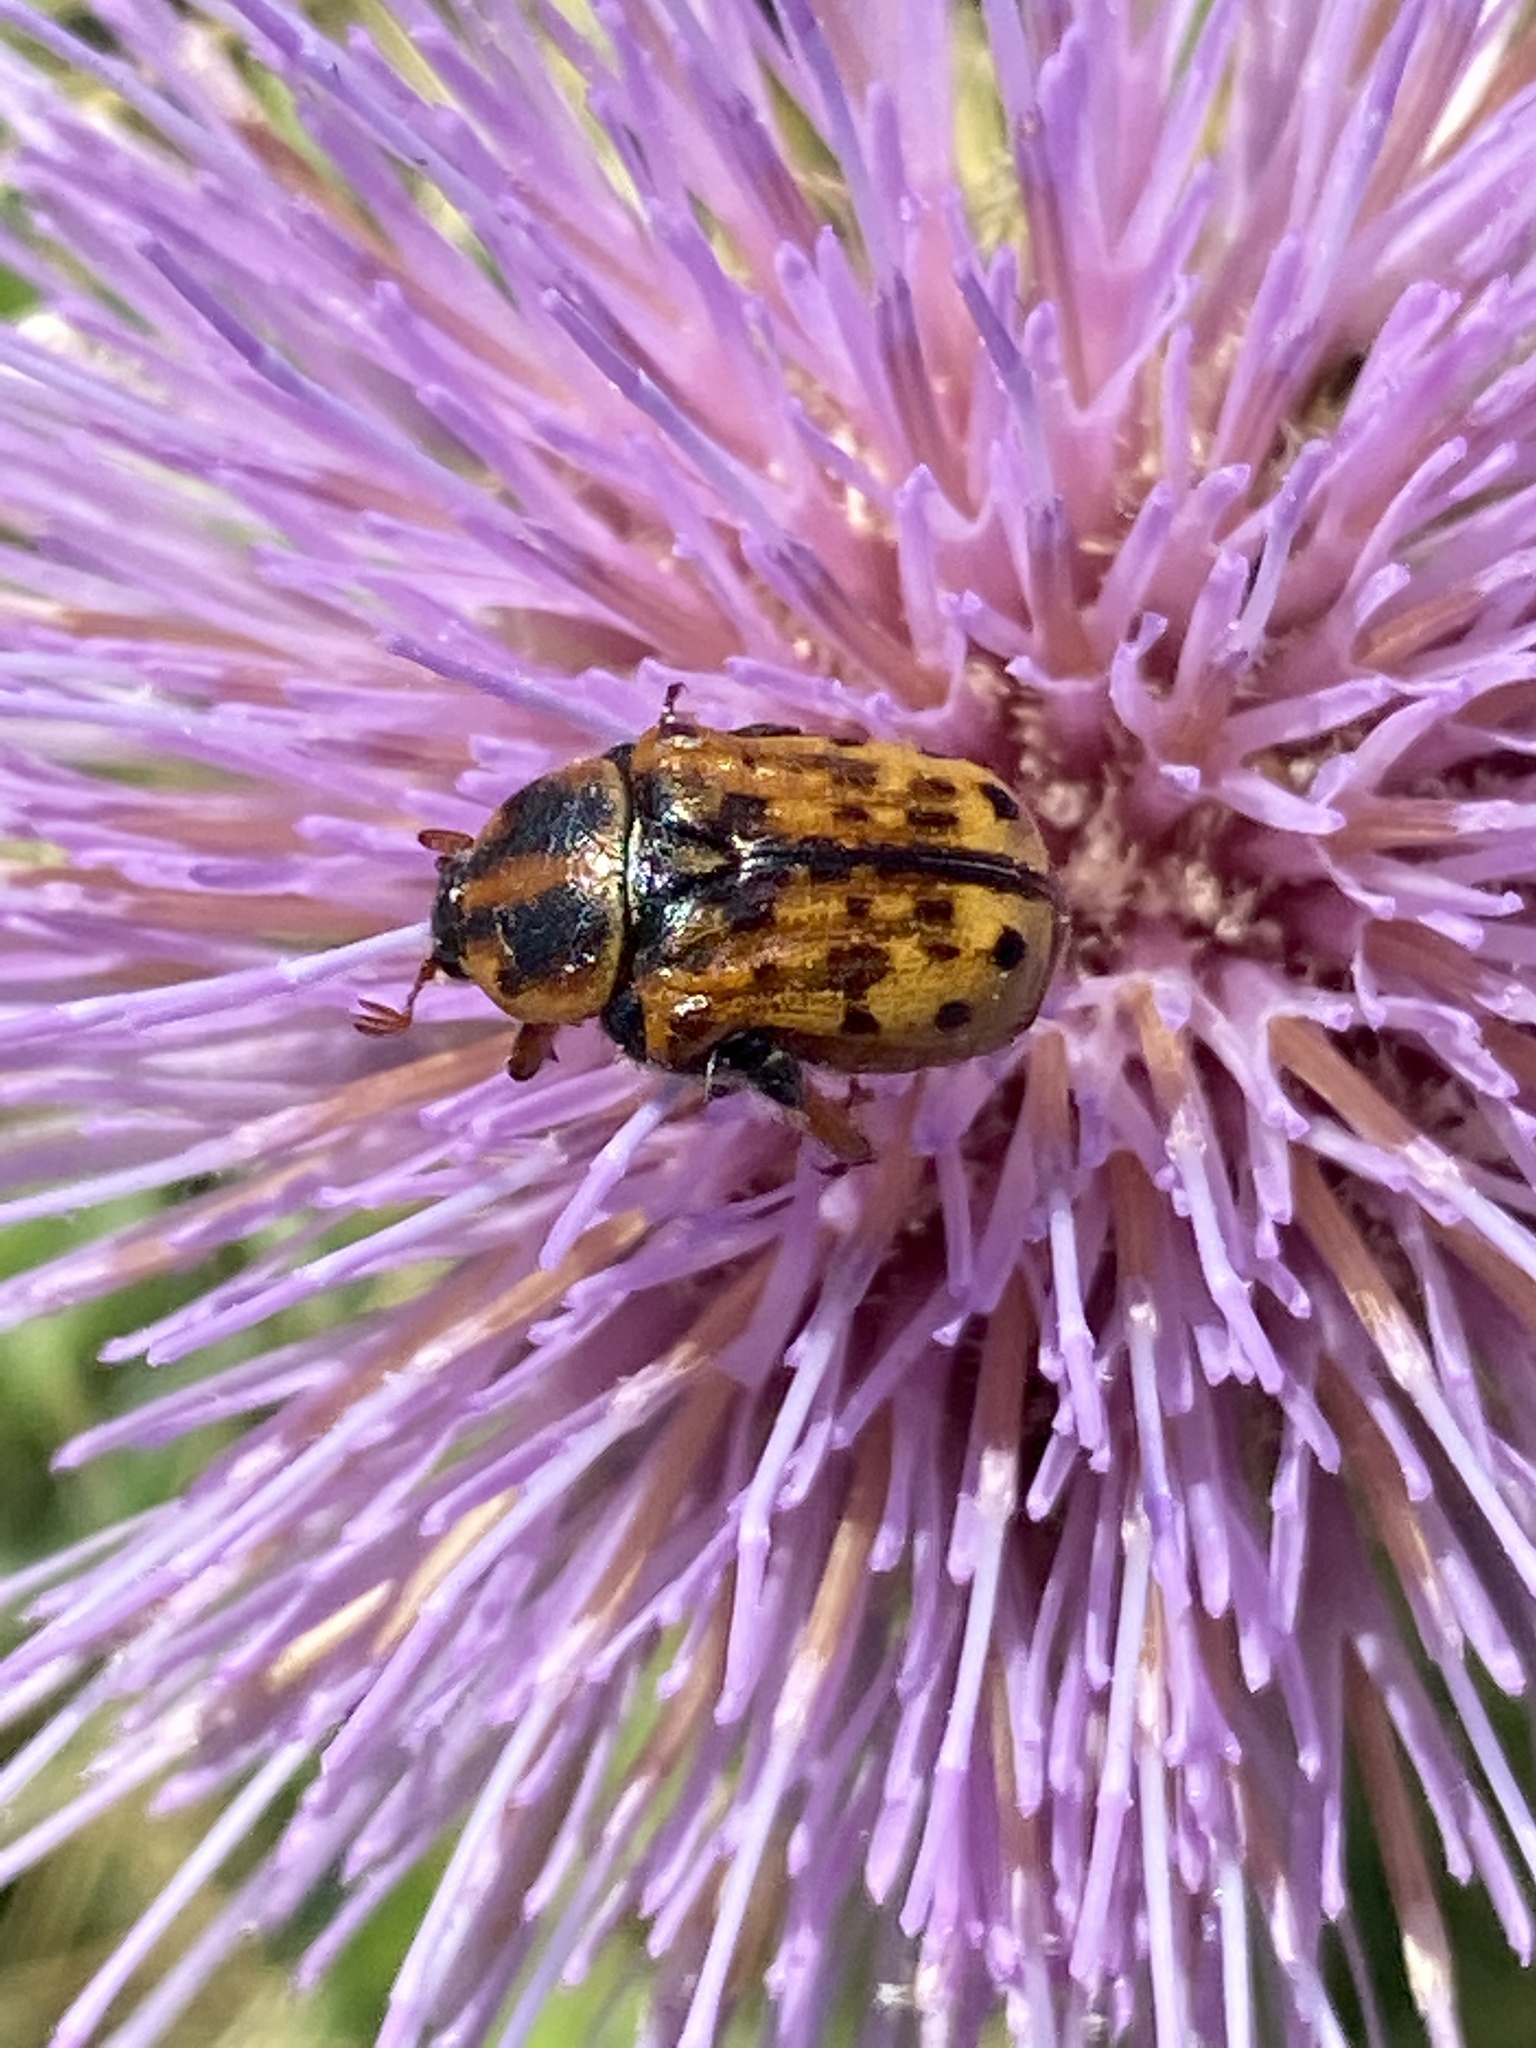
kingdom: Animalia
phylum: Arthropoda
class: Insecta
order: Coleoptera
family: Scarabaeidae
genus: Euphoria
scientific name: Euphoria kernii
